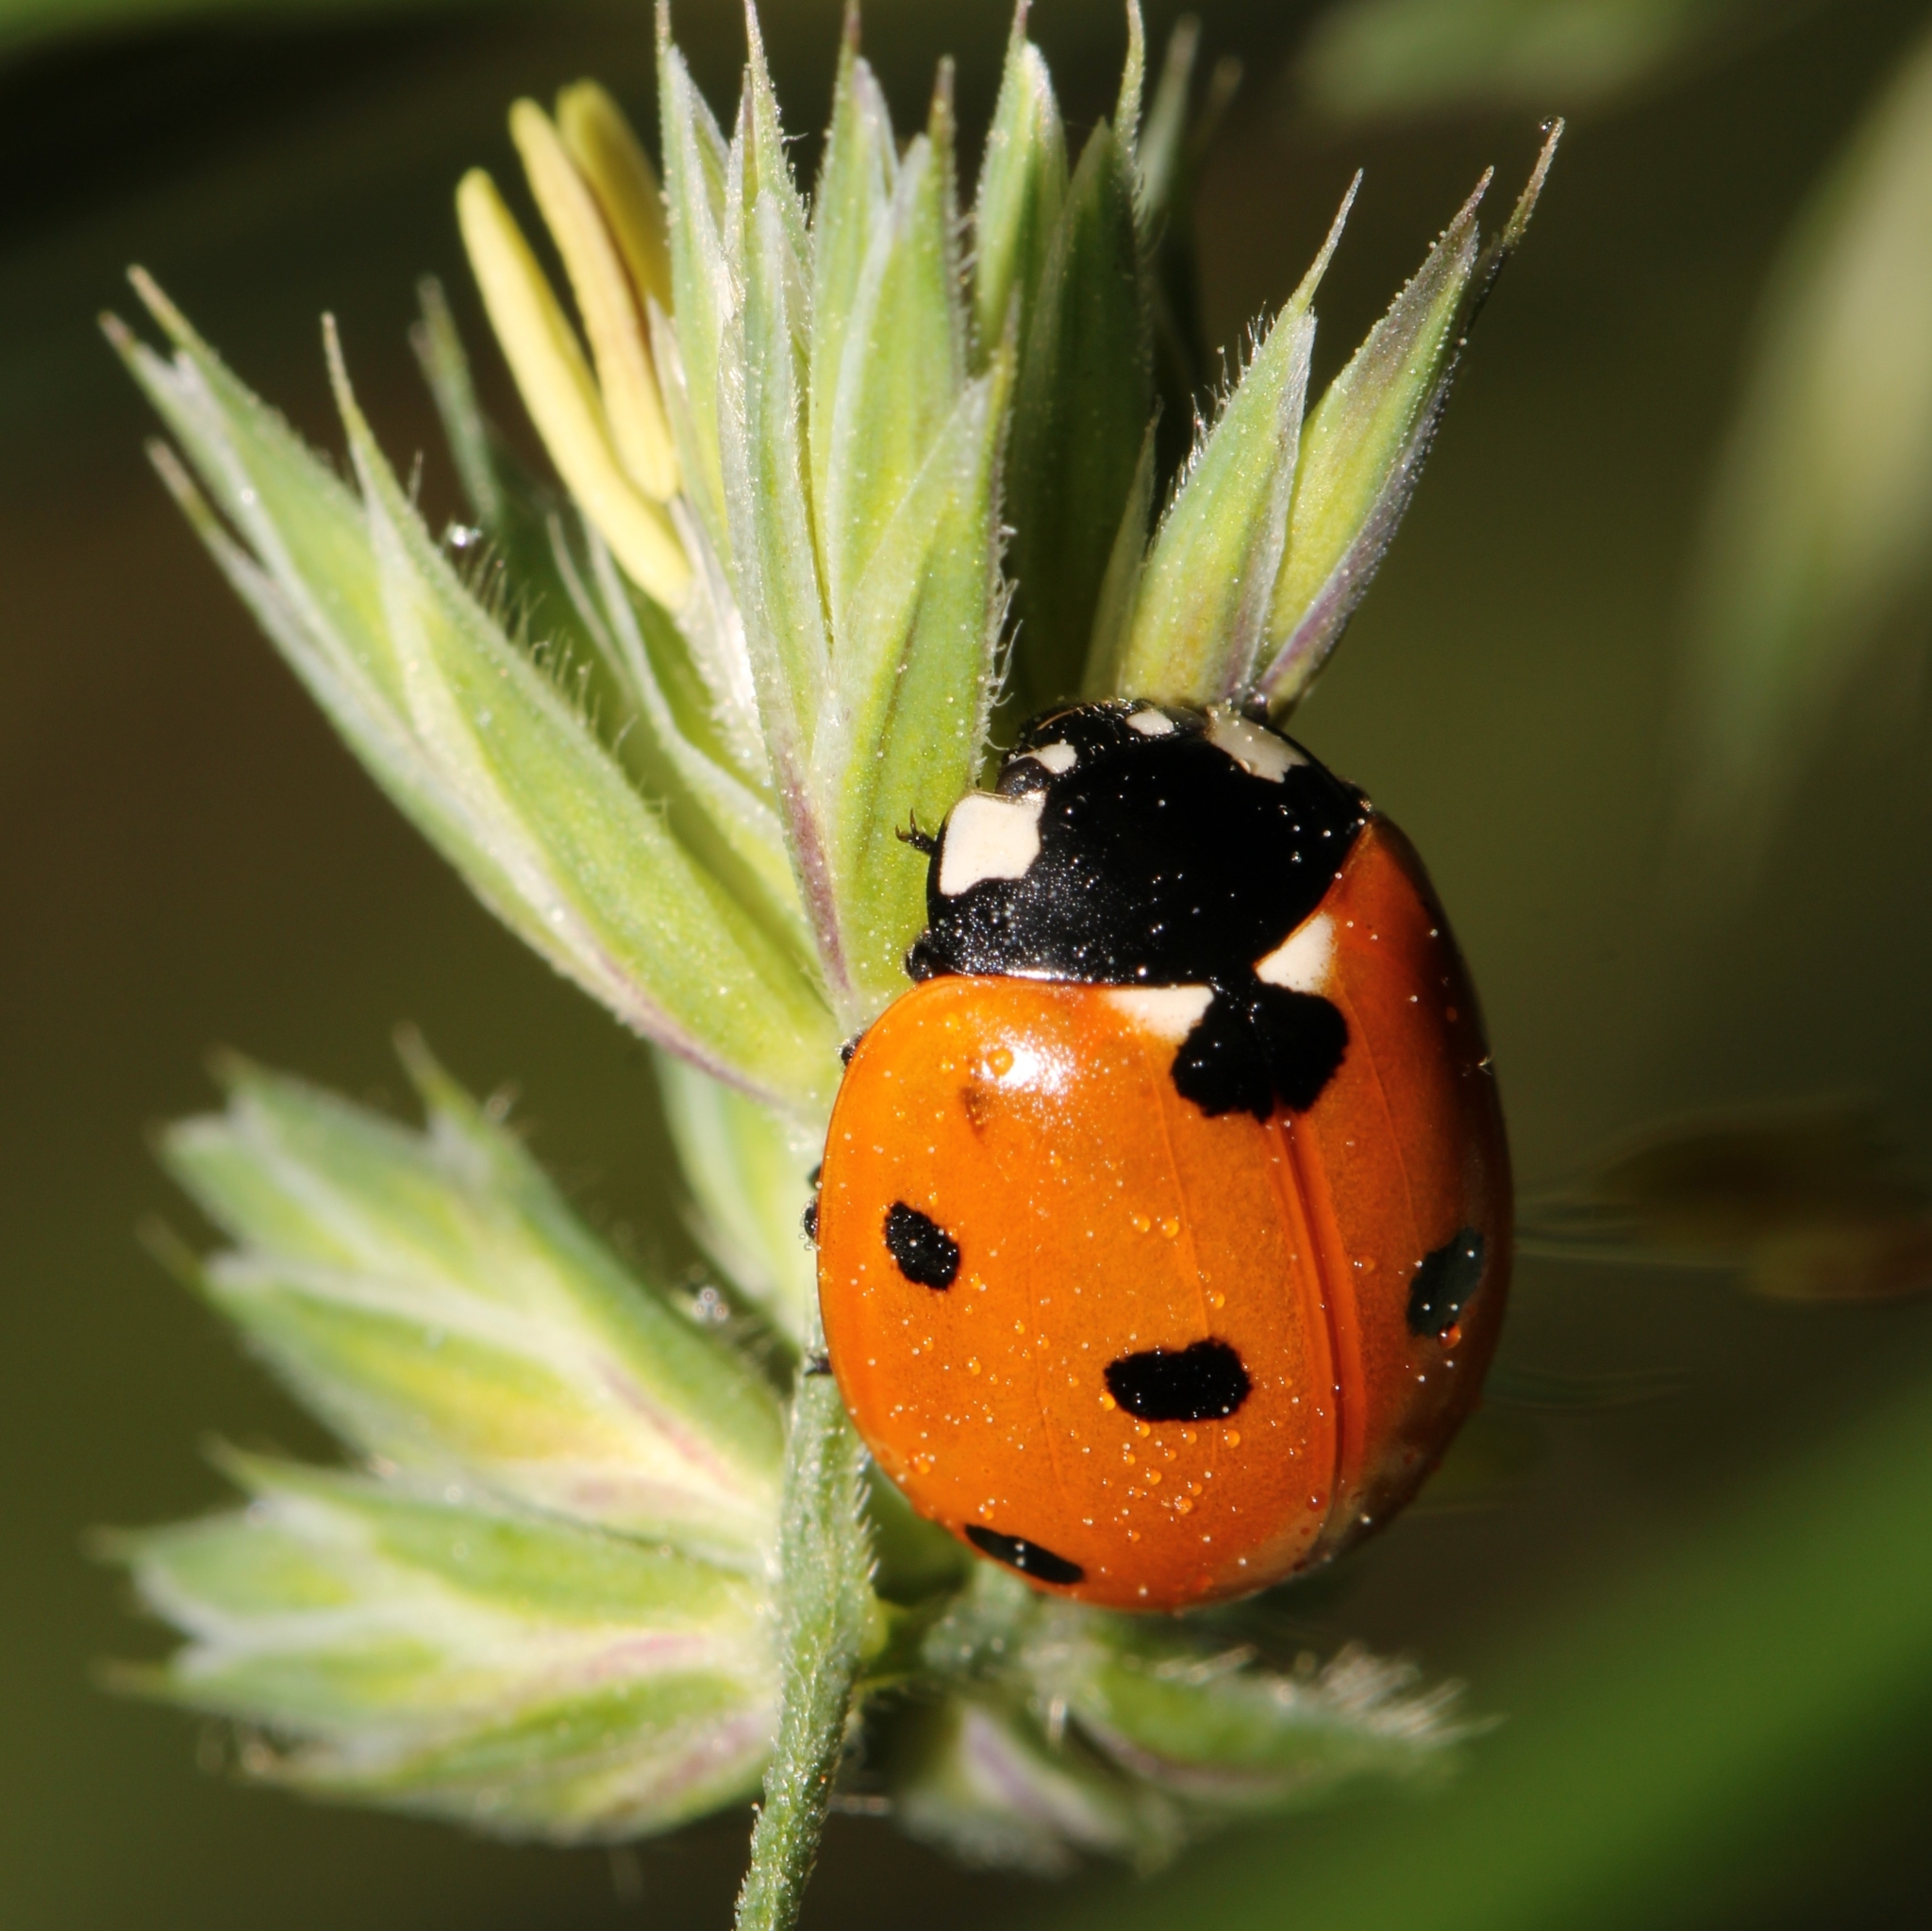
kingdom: Animalia
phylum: Arthropoda
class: Insecta
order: Coleoptera
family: Coccinellidae
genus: Coccinella
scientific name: Coccinella septempunctata
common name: Sevenspotted lady beetle
